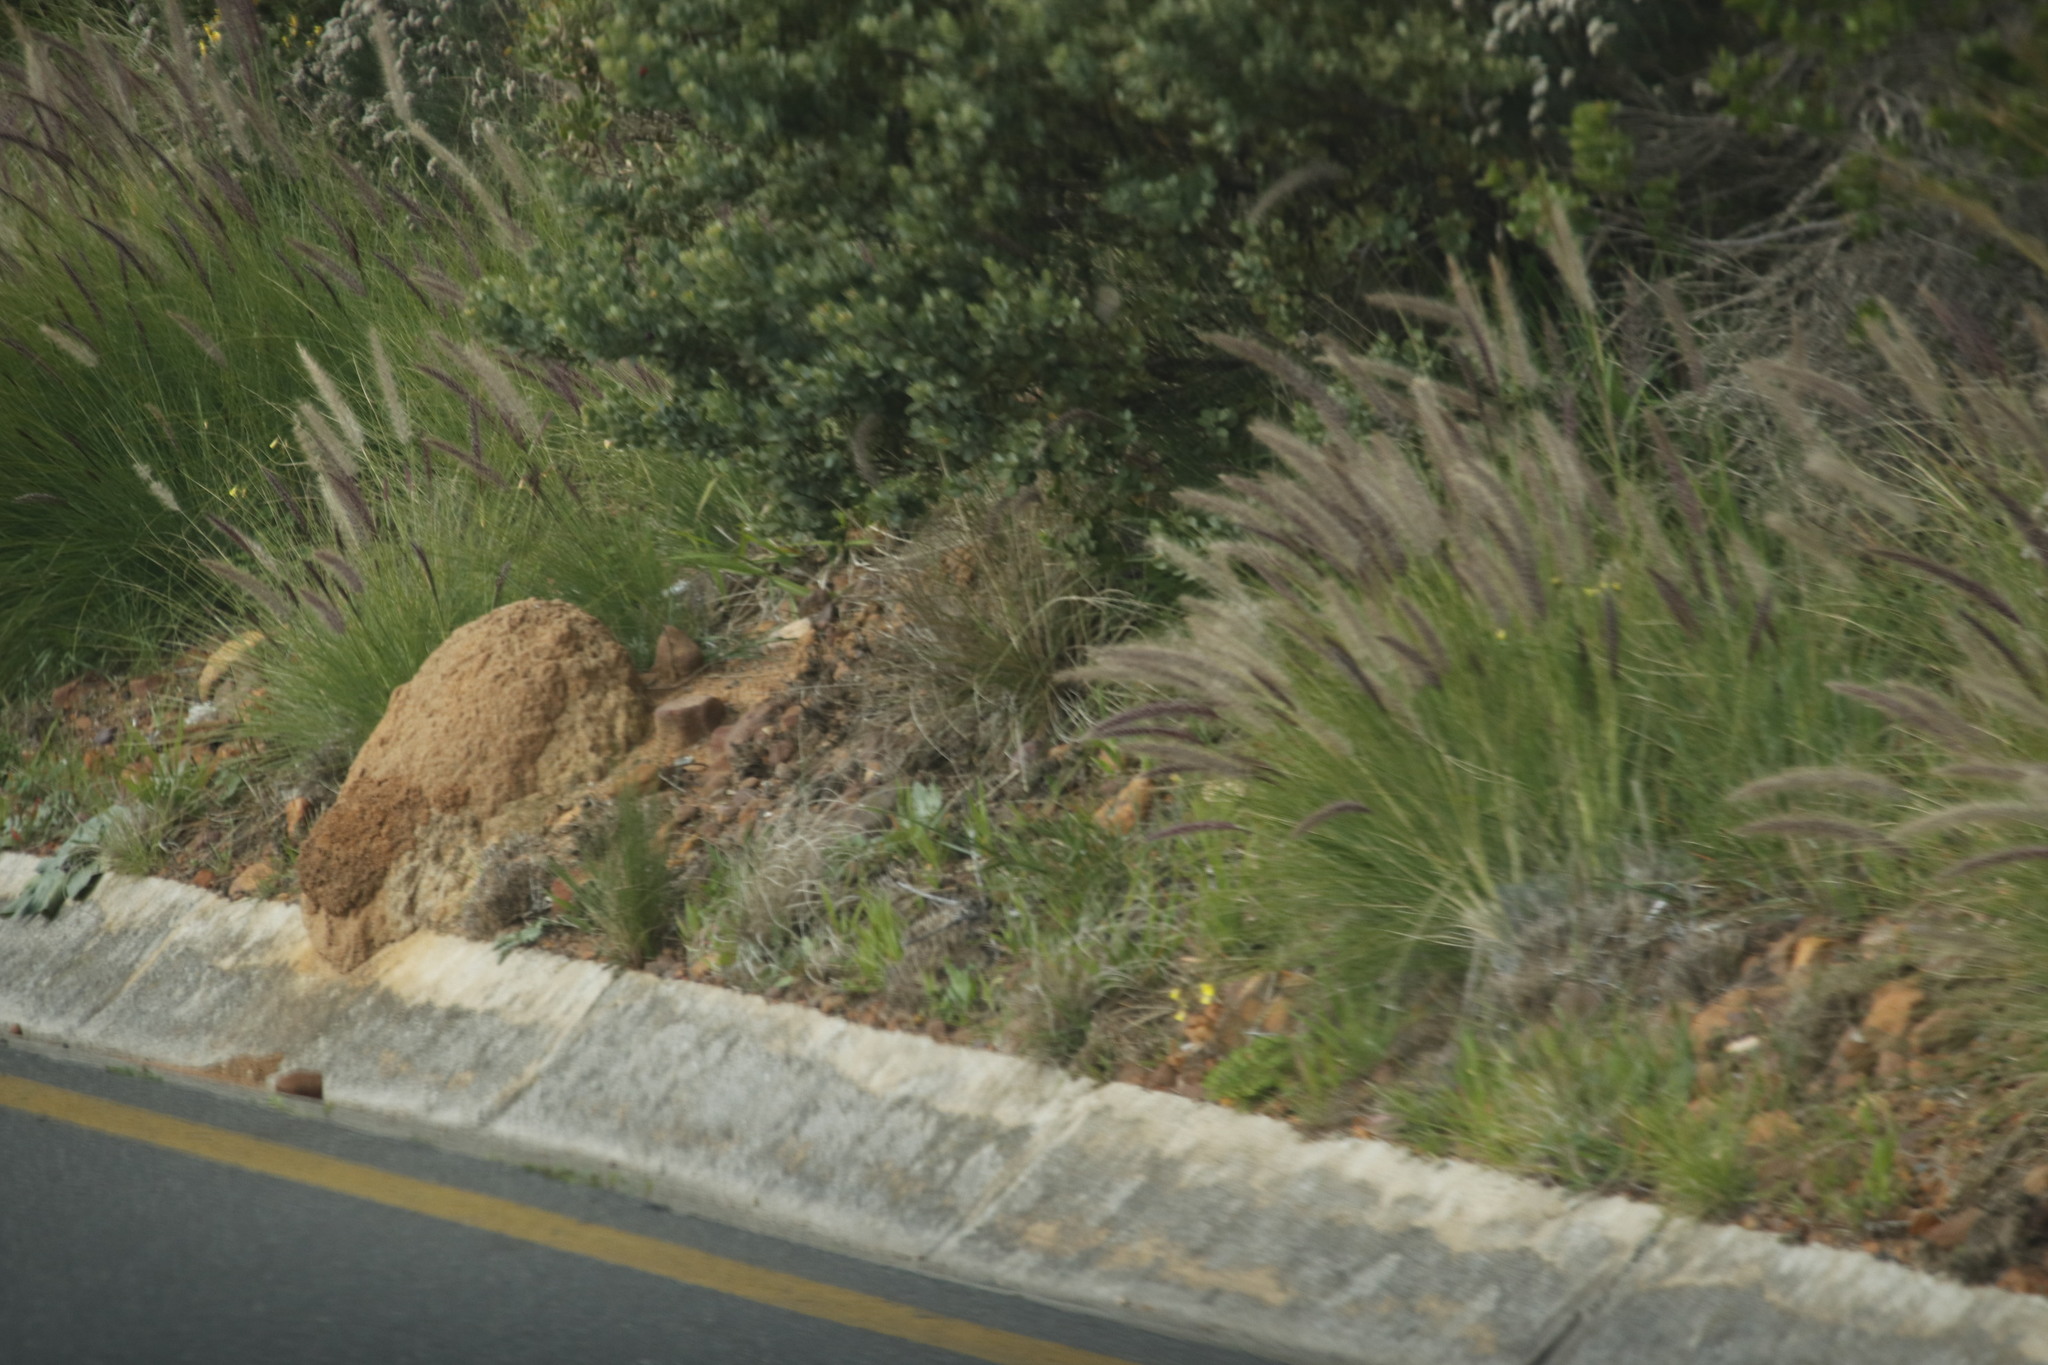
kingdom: Plantae
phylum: Tracheophyta
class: Liliopsida
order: Poales
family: Poaceae
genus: Cenchrus
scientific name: Cenchrus setaceus
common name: Crimson fountaingrass
